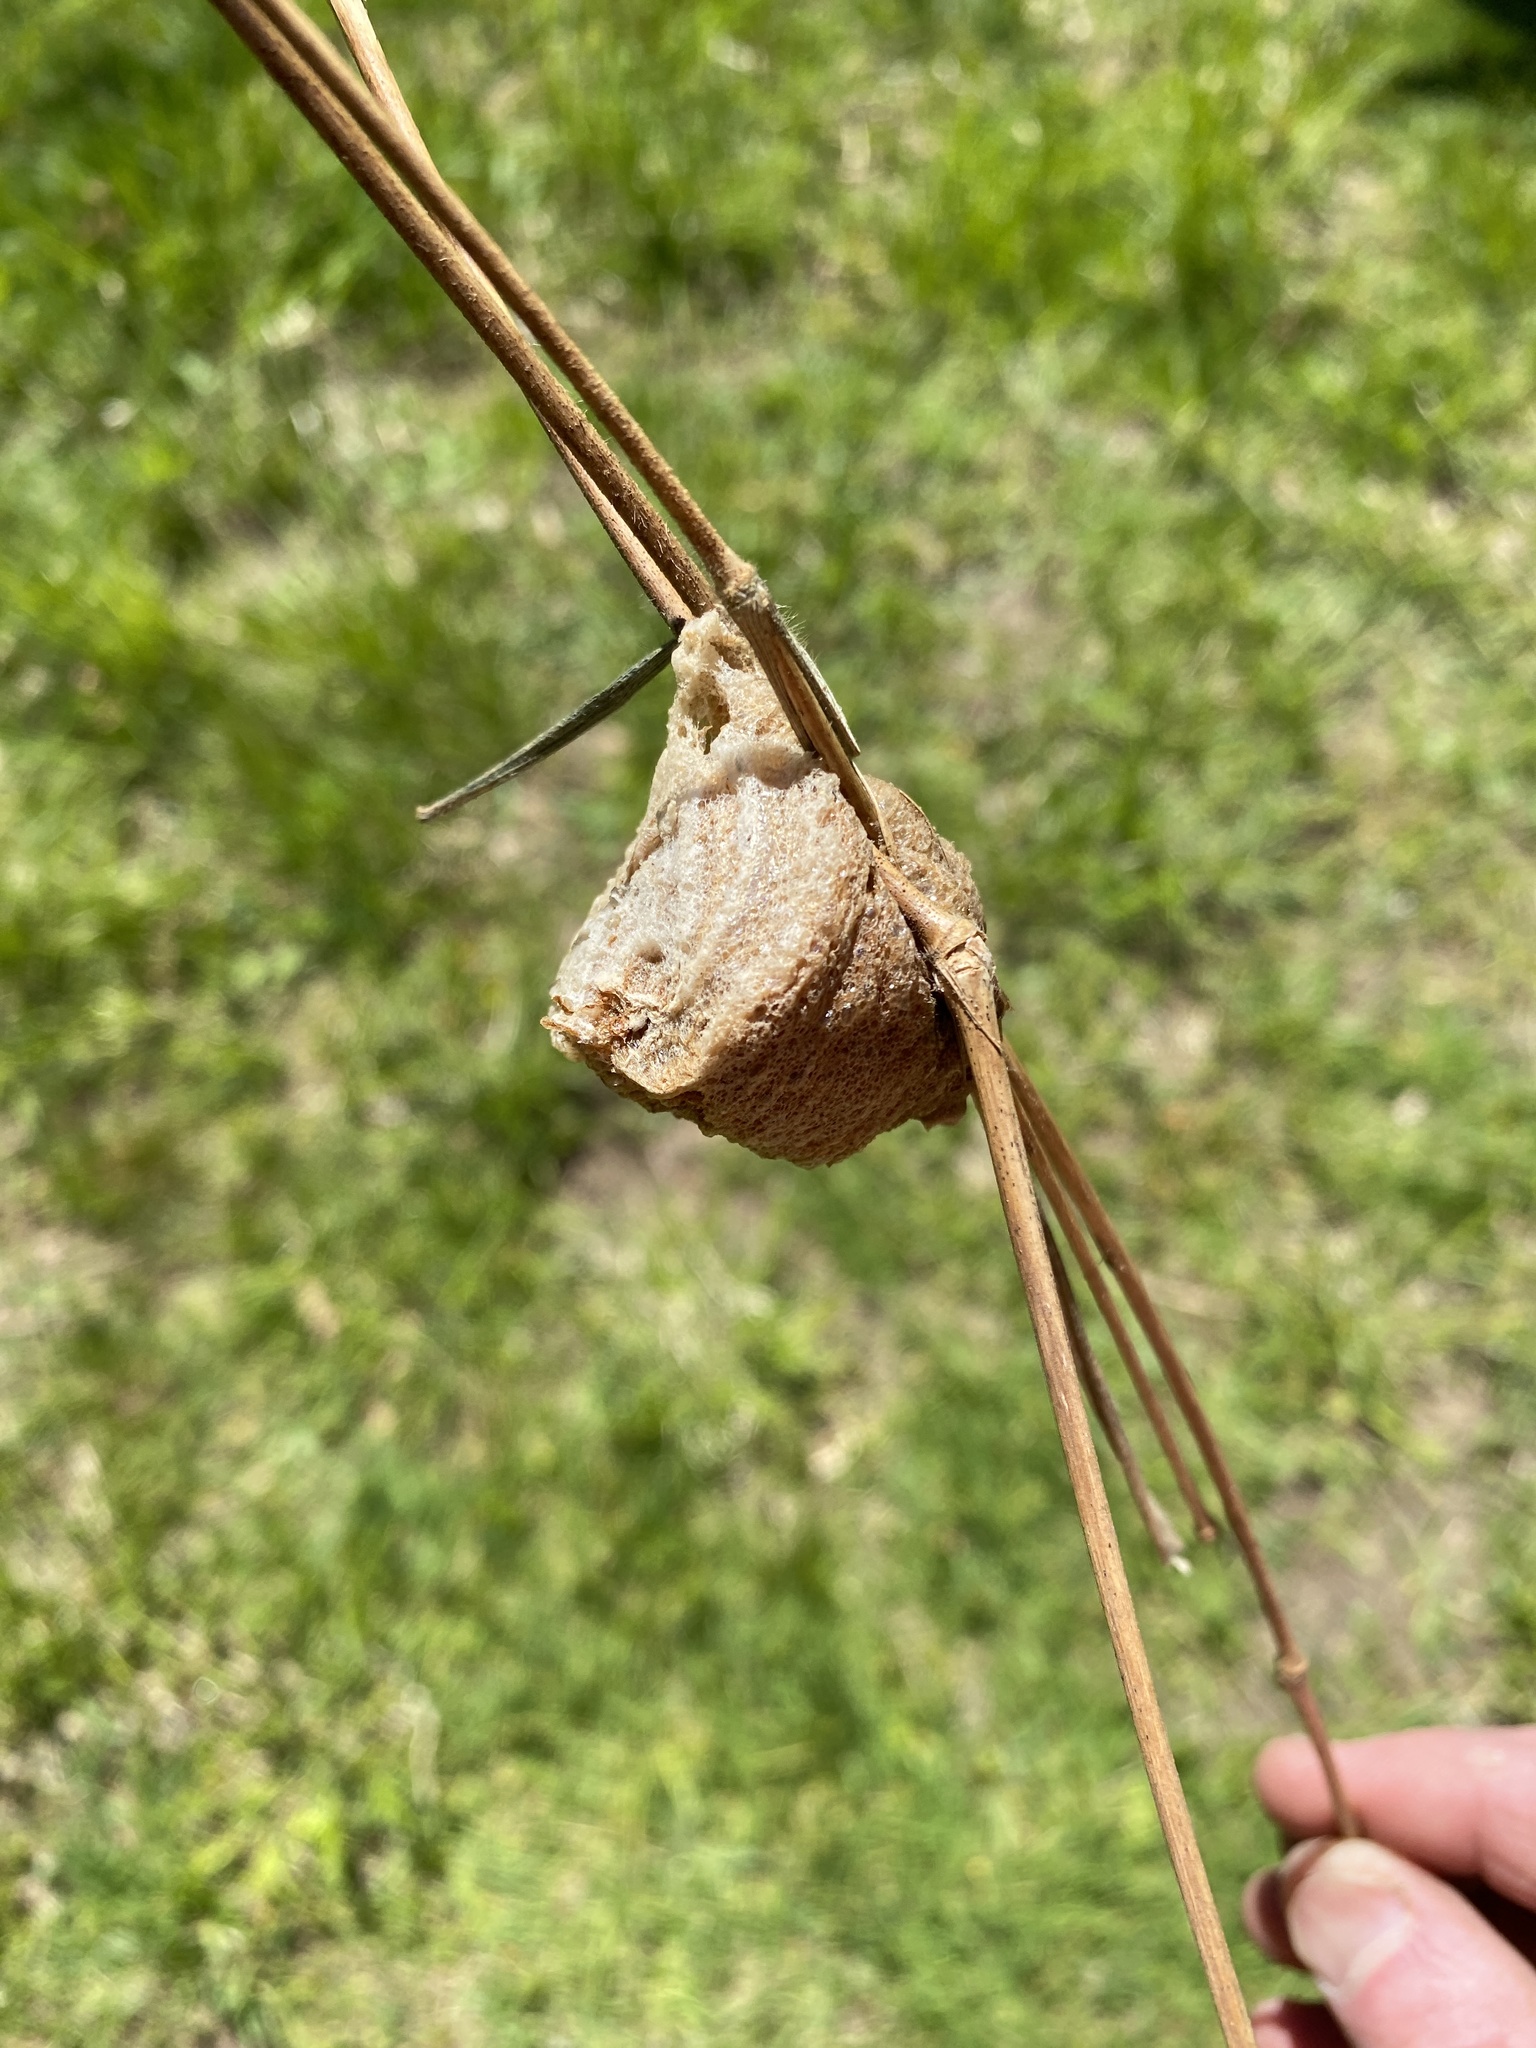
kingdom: Animalia
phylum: Arthropoda
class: Insecta
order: Mantodea
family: Mantidae
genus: Tenodera
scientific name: Tenodera sinensis
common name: Chinese mantis
